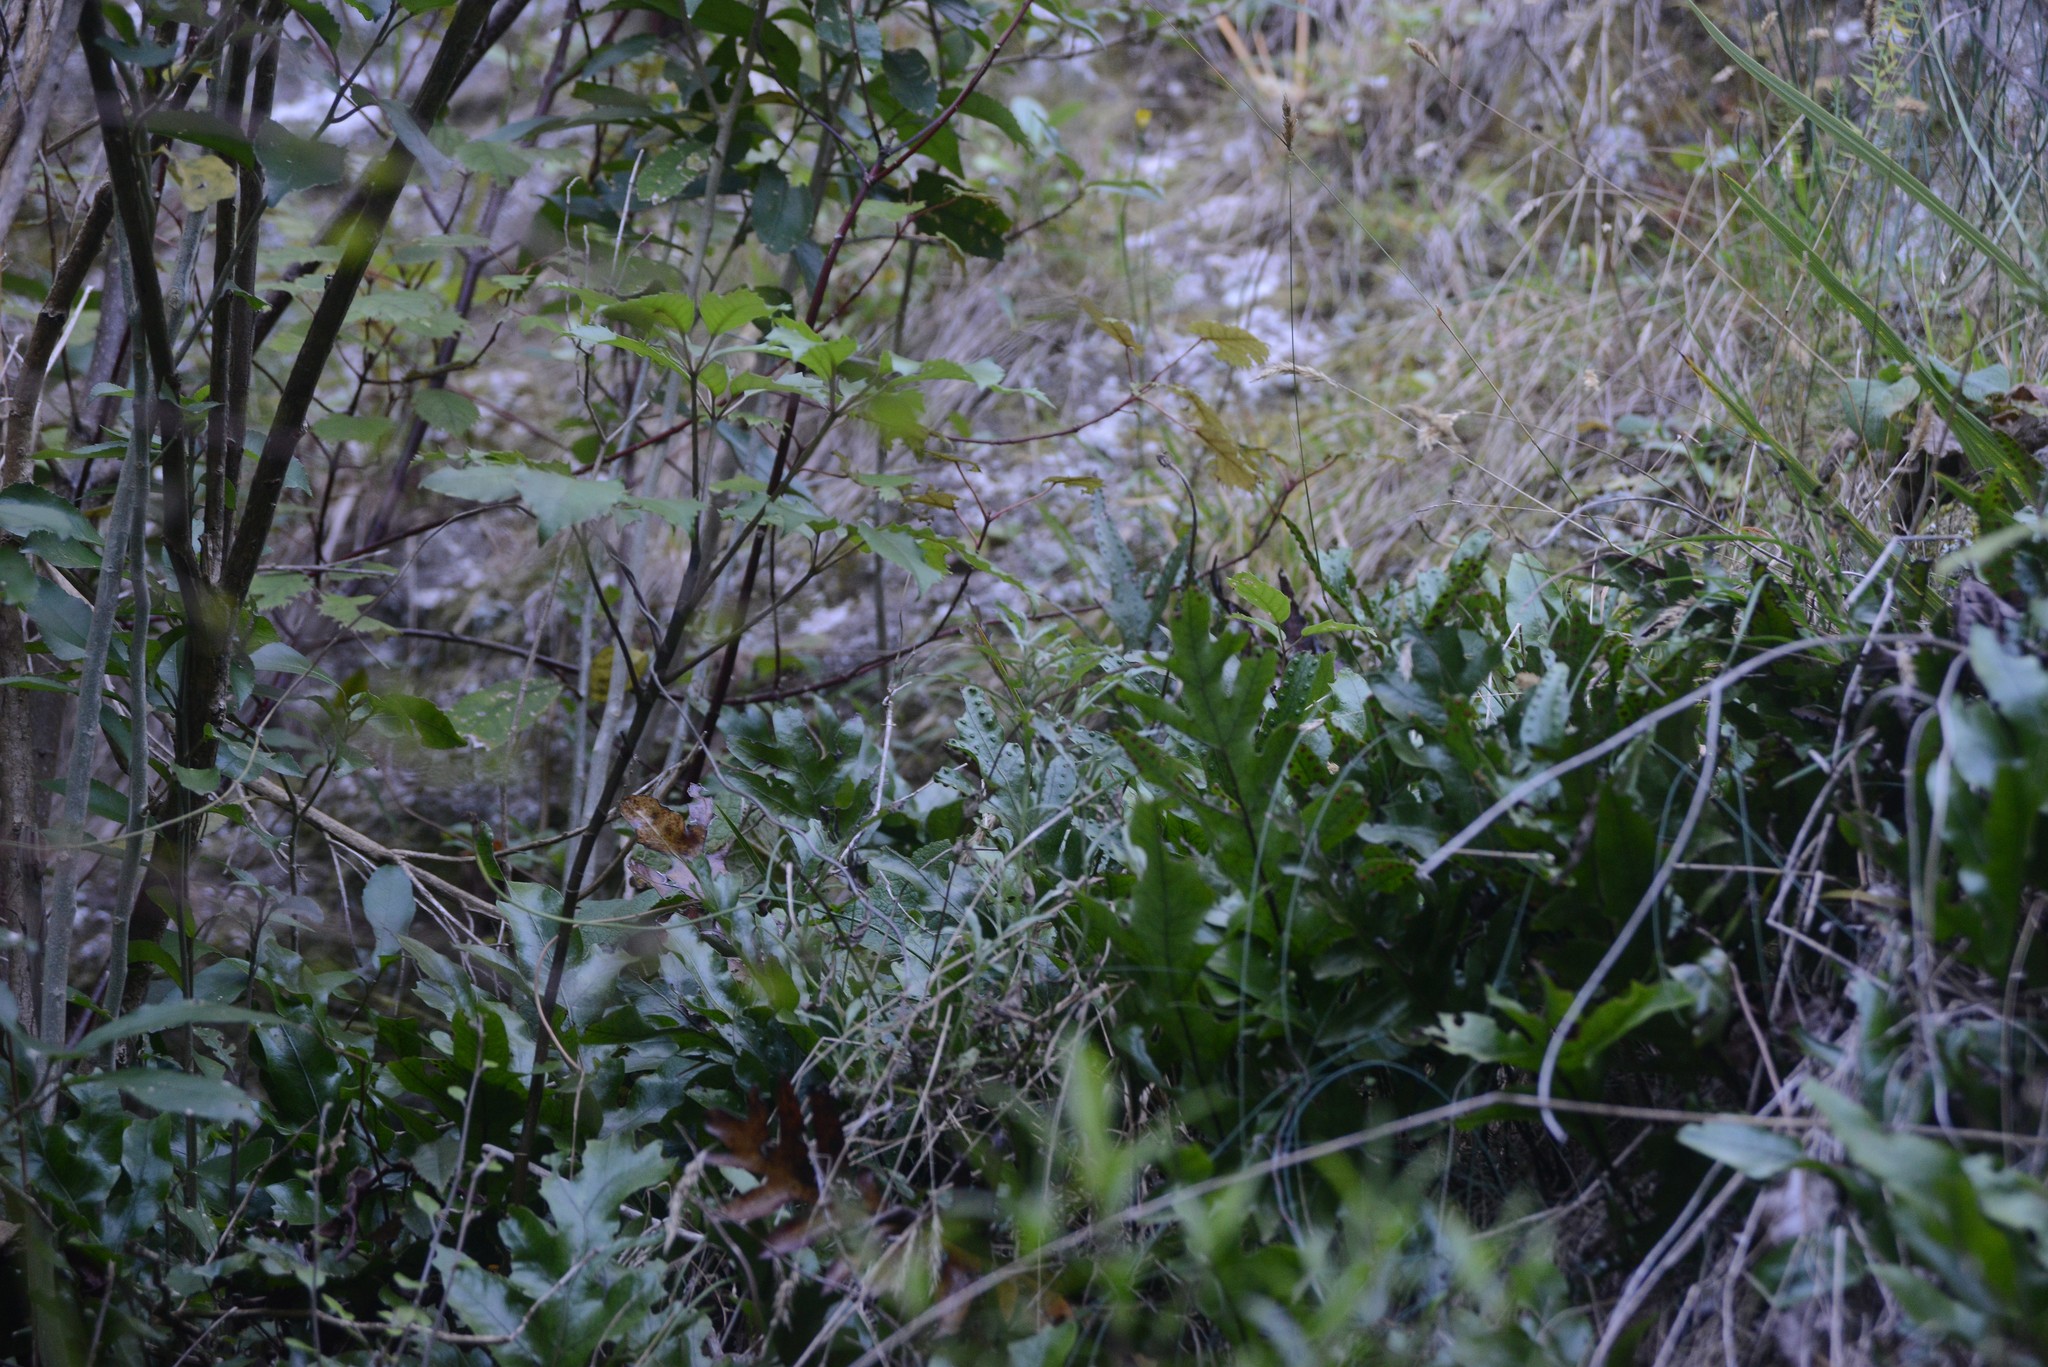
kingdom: Plantae
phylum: Tracheophyta
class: Magnoliopsida
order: Asterales
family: Asteraceae
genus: Senecio
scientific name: Senecio glomeratus
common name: Cutleaf burnweed
